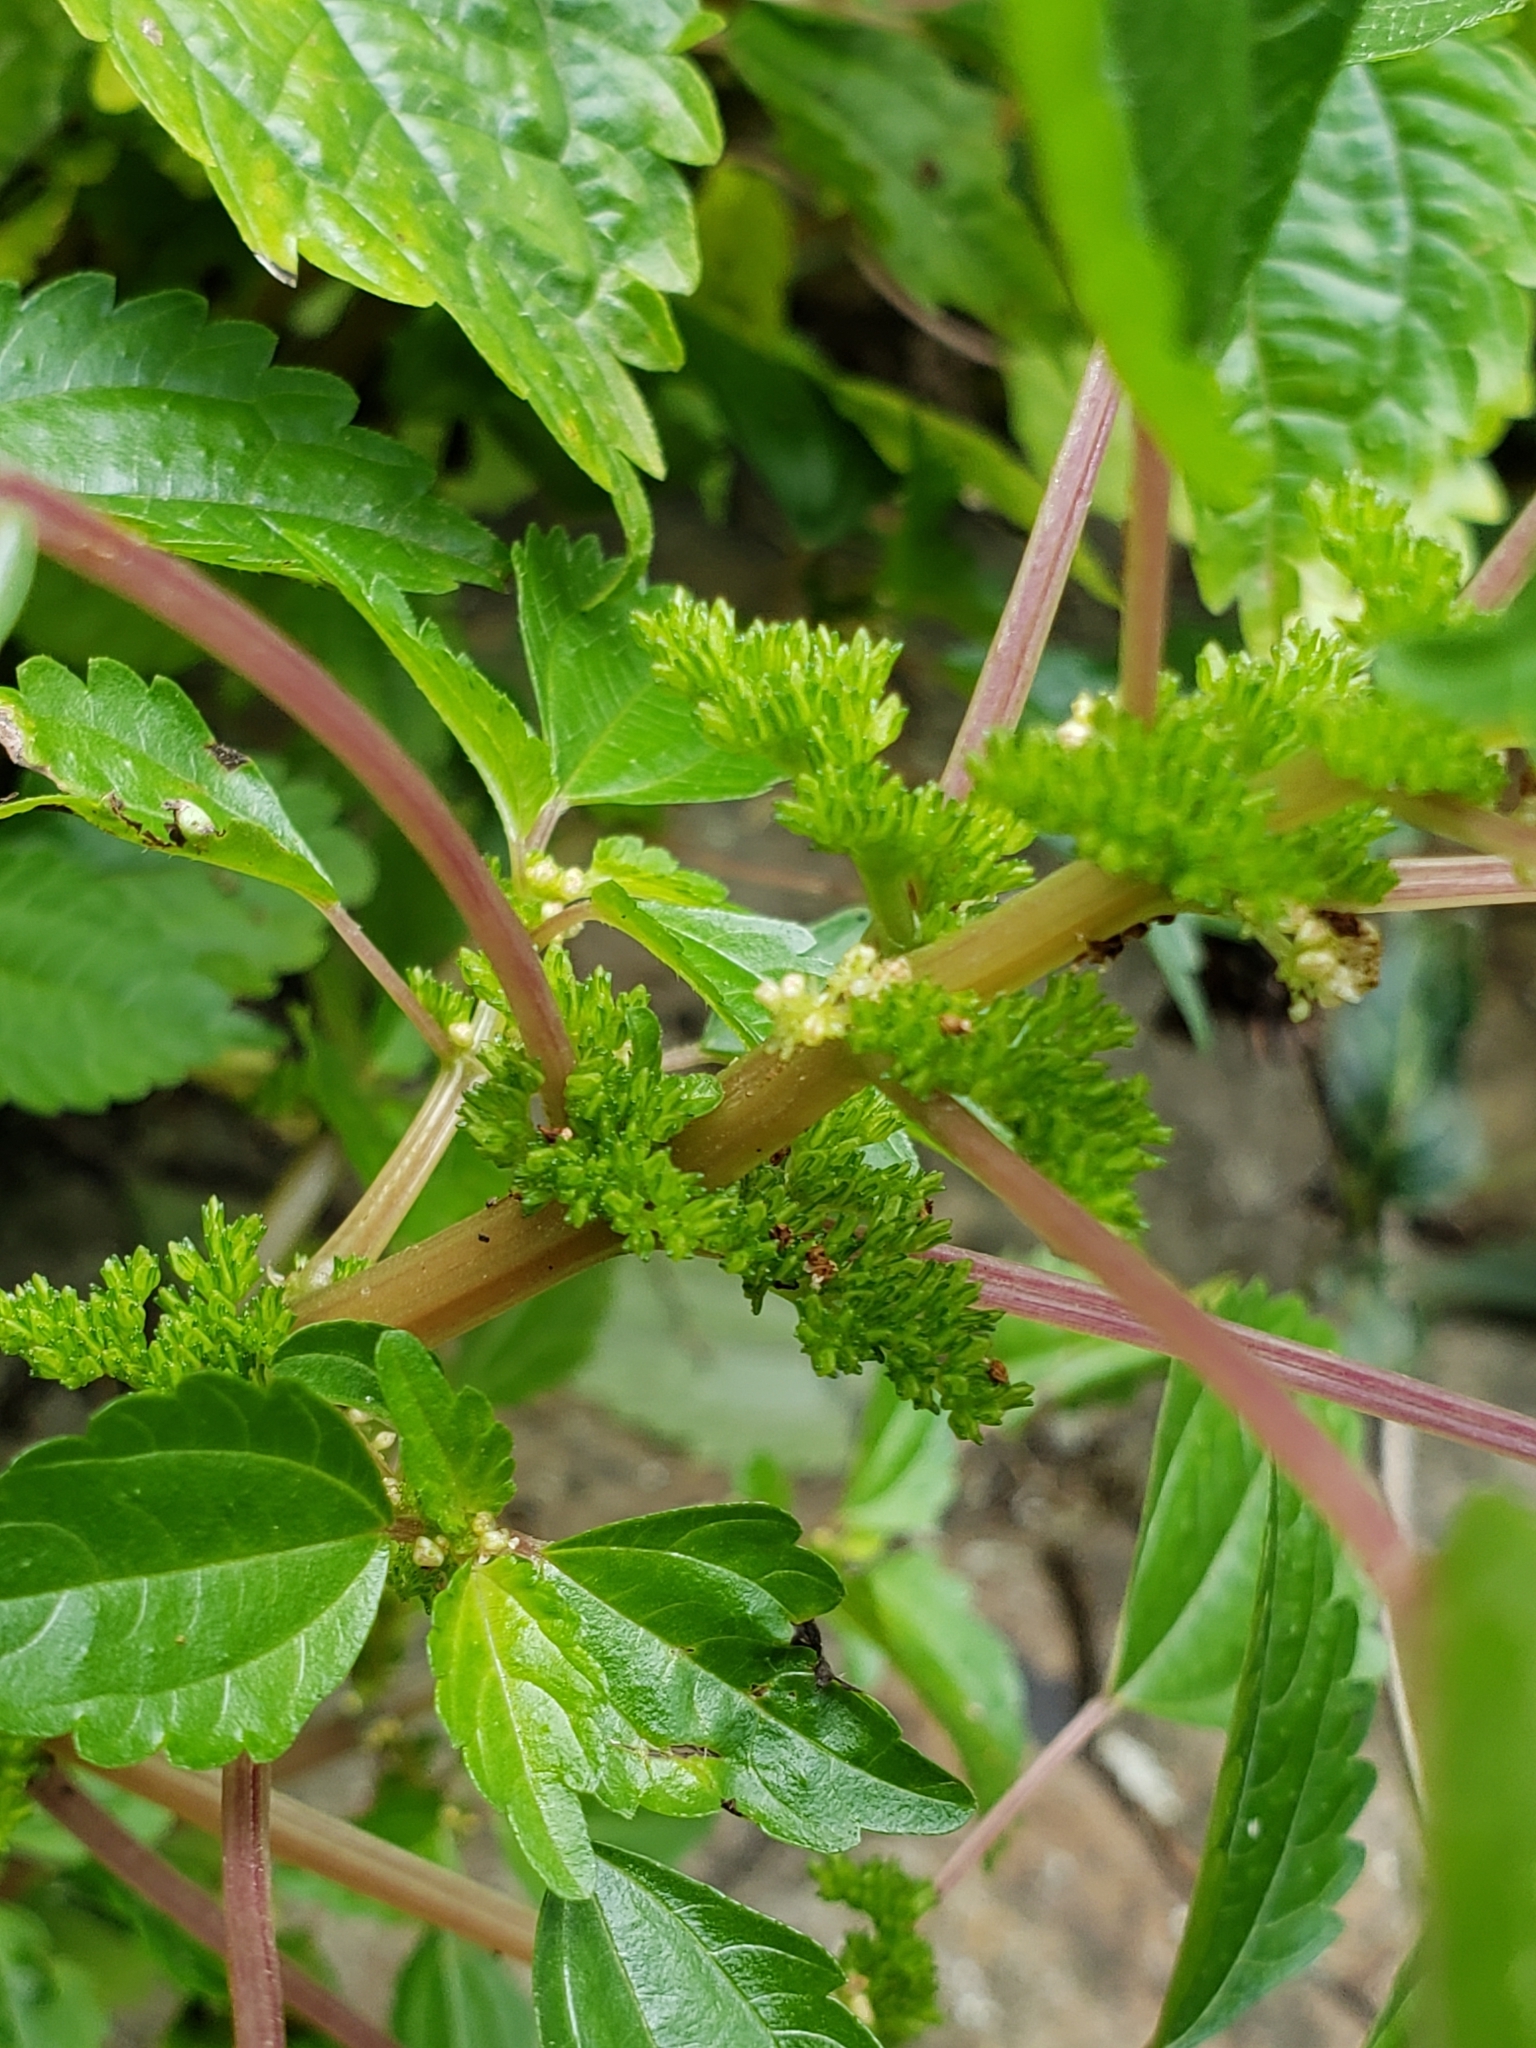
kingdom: Plantae
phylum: Tracheophyta
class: Magnoliopsida
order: Rosales
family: Urticaceae
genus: Pilea
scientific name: Pilea pumila
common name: Clearweed
